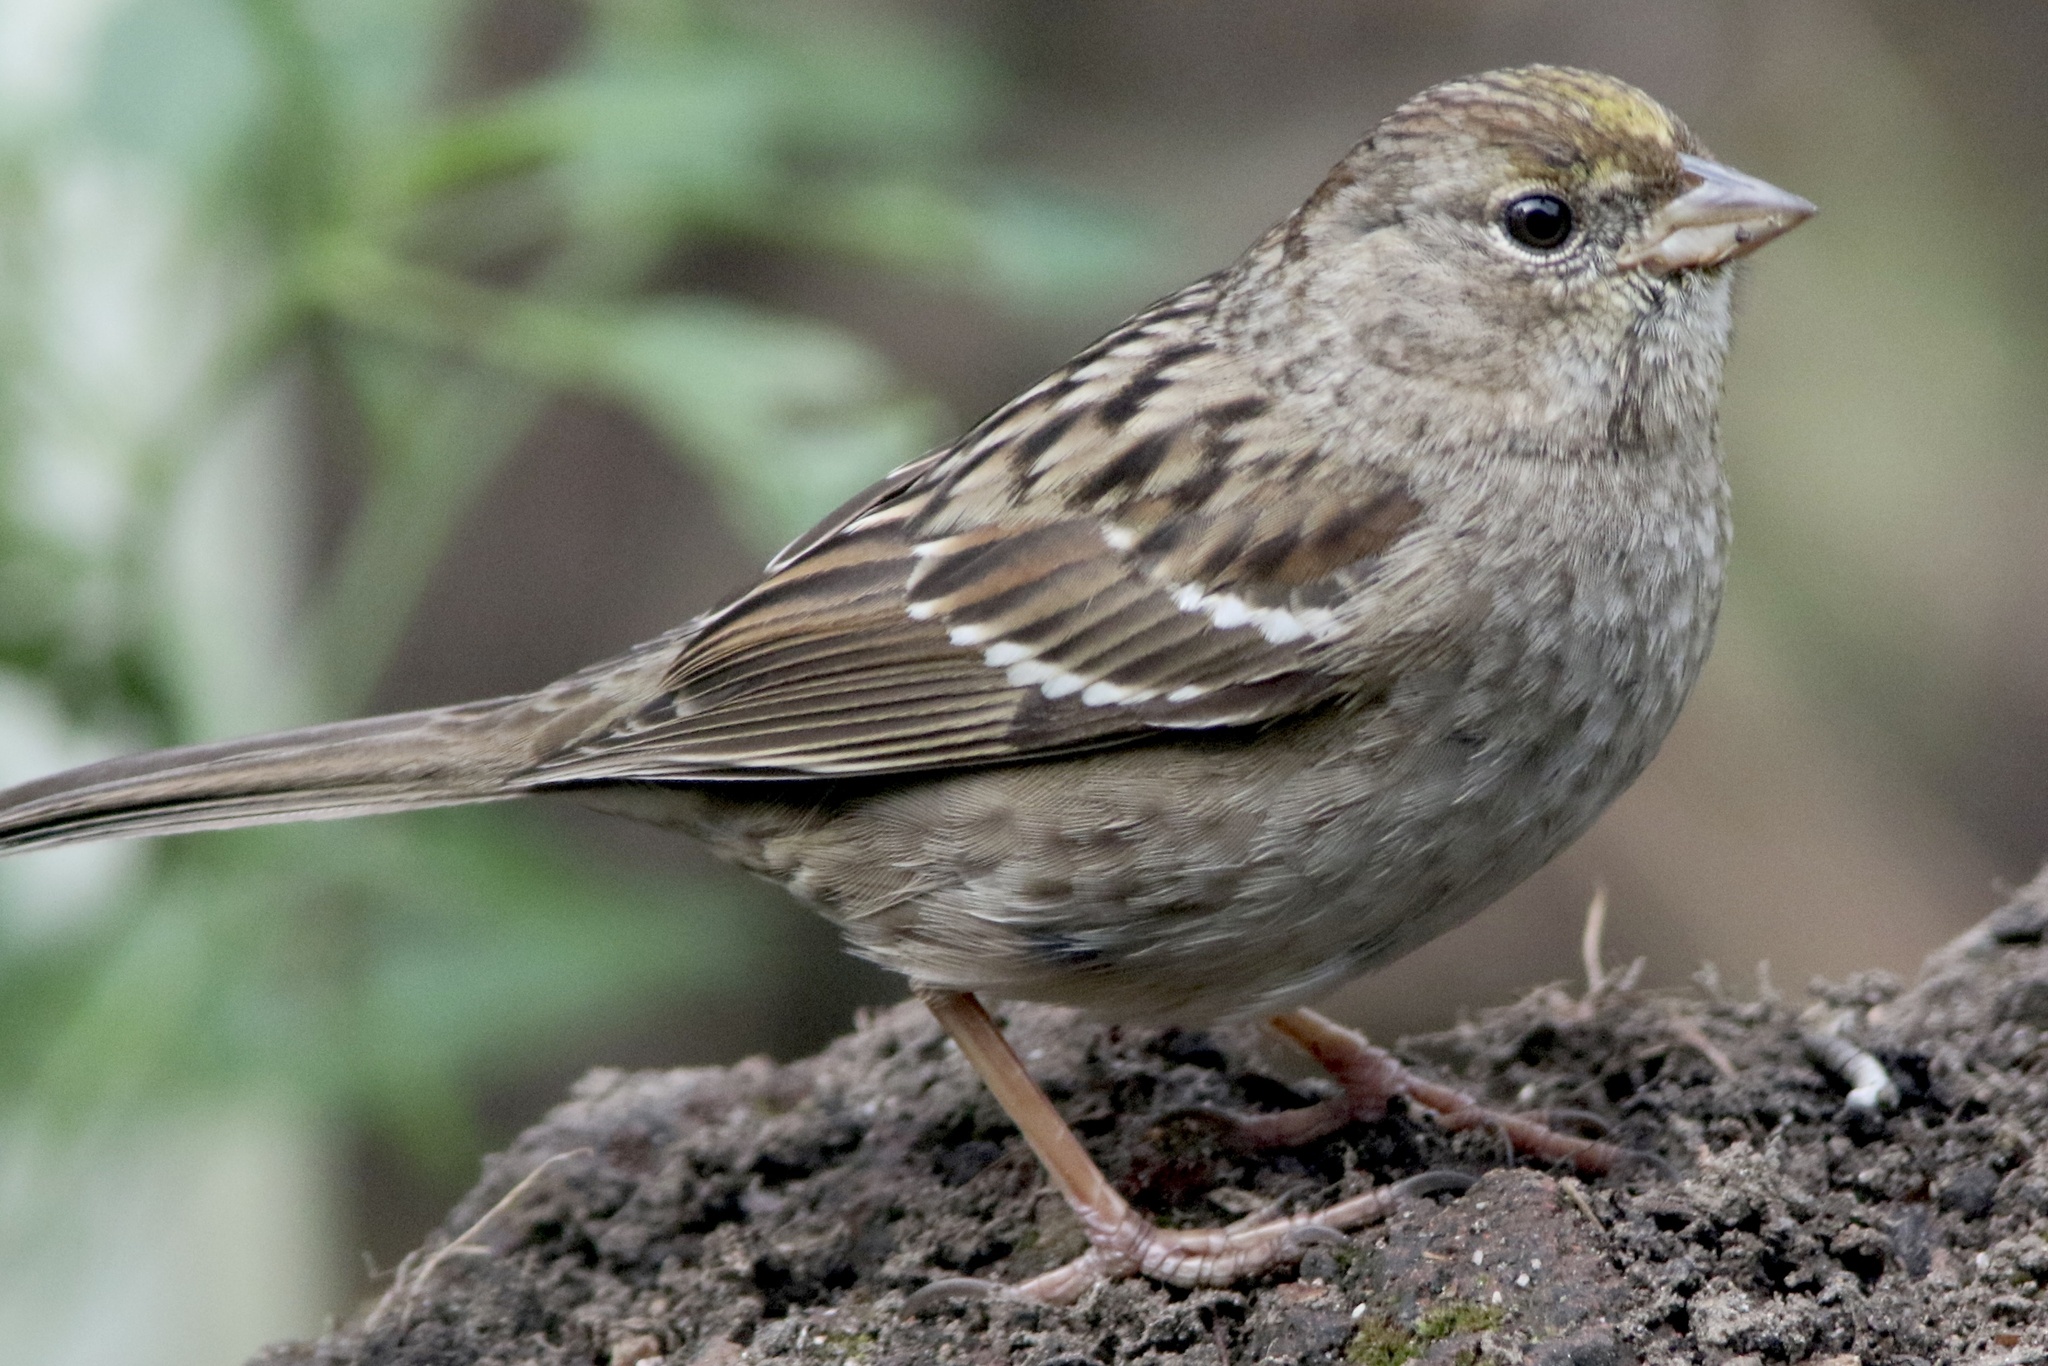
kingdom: Animalia
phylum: Chordata
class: Aves
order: Passeriformes
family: Passerellidae
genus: Zonotrichia
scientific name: Zonotrichia atricapilla
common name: Golden-crowned sparrow
